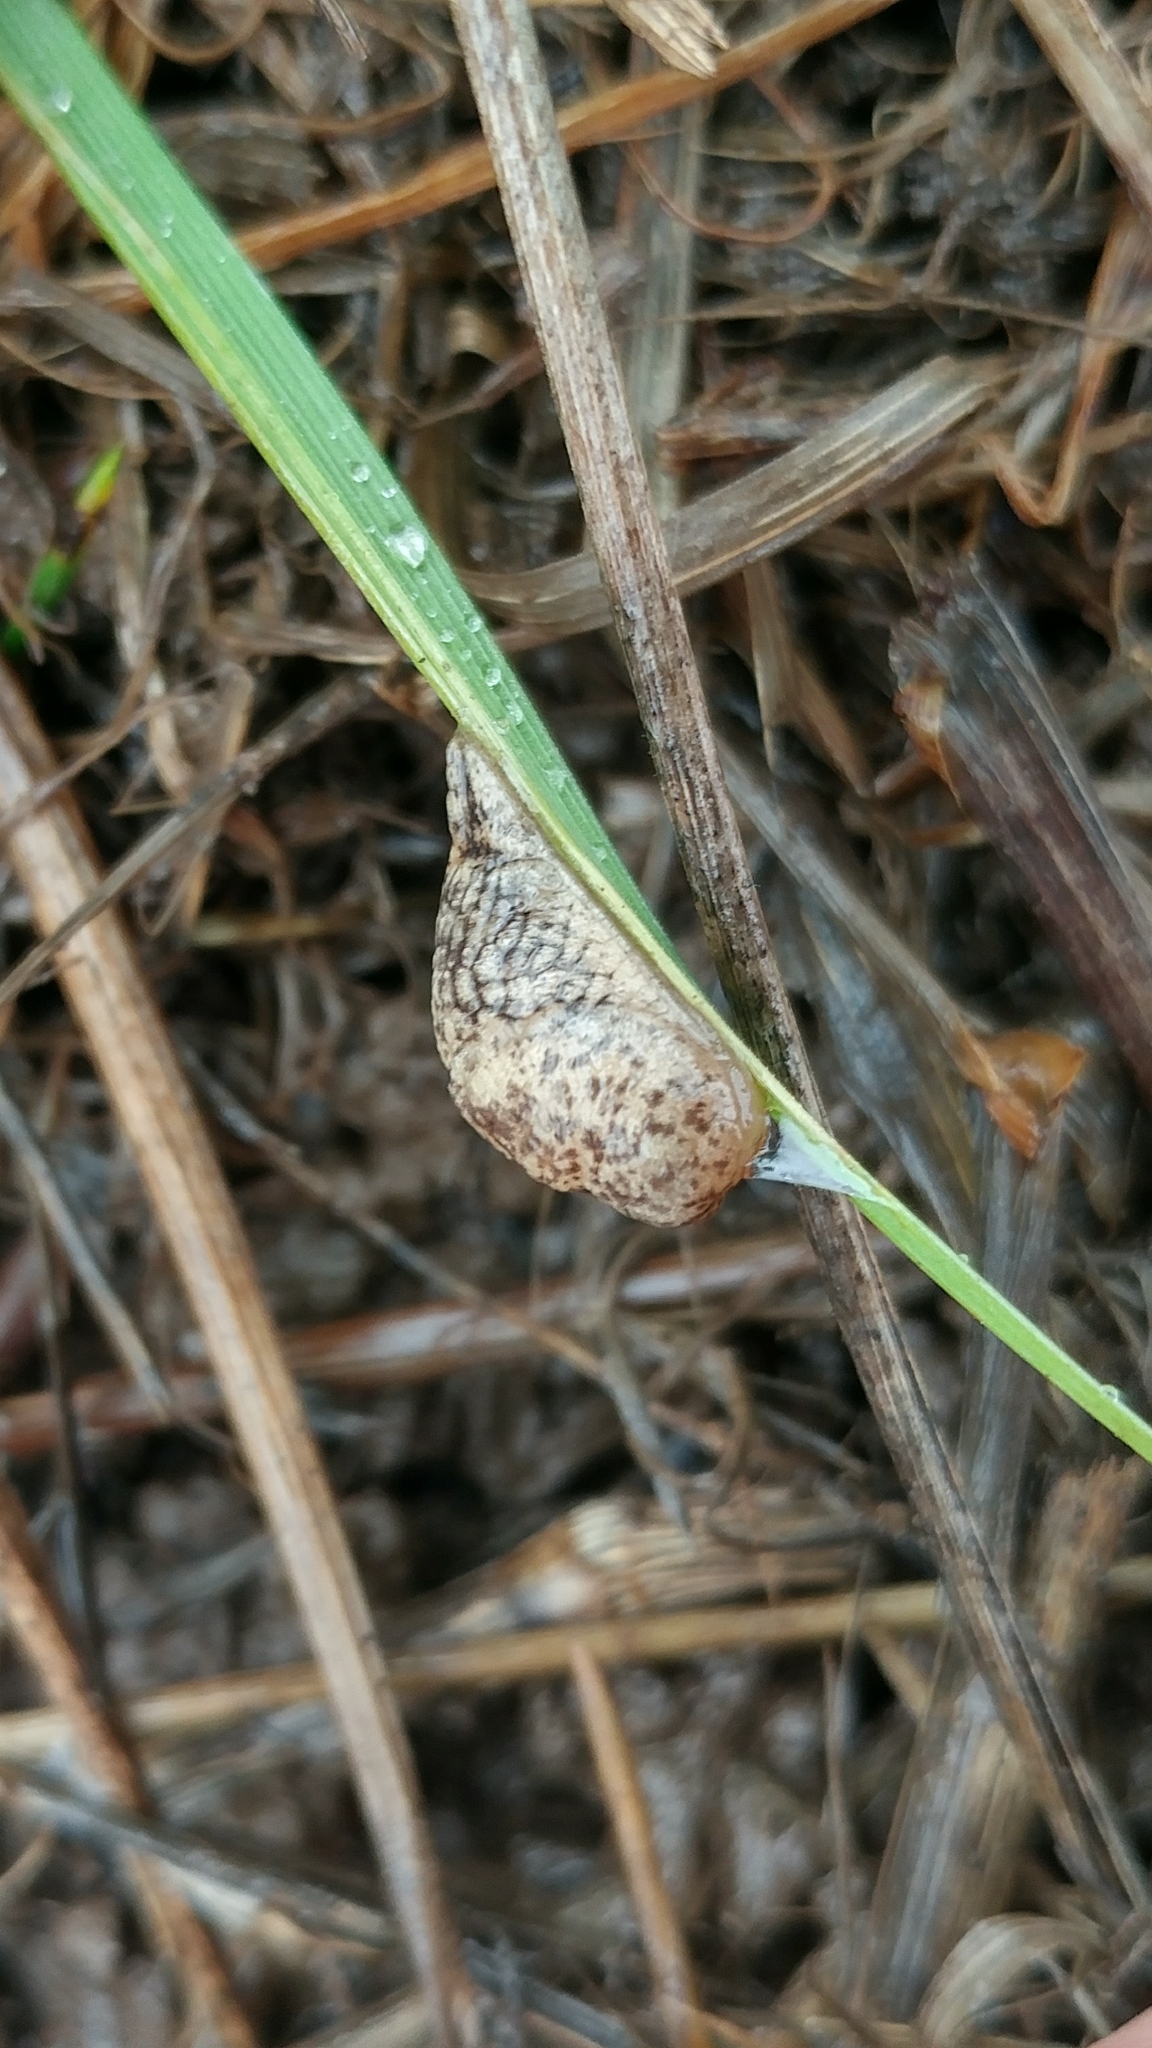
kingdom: Animalia
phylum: Mollusca
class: Gastropoda
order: Stylommatophora
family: Agriolimacidae
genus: Deroceras
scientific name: Deroceras reticulatum
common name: Gray field slug
